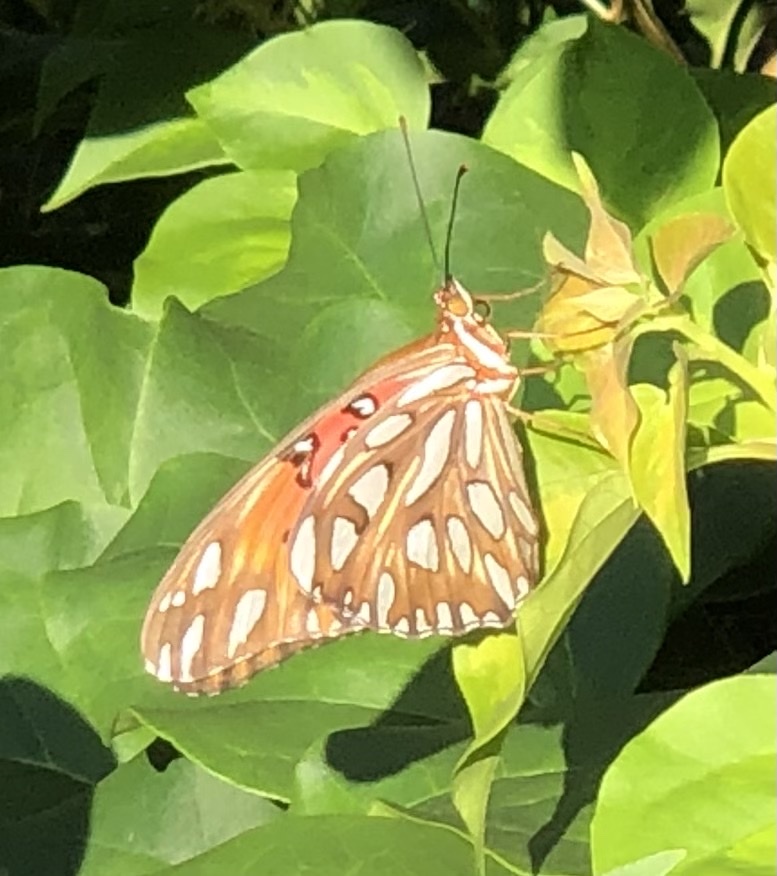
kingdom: Animalia
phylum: Arthropoda
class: Insecta
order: Lepidoptera
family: Nymphalidae
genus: Dione
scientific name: Dione vanillae
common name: Gulf fritillary
